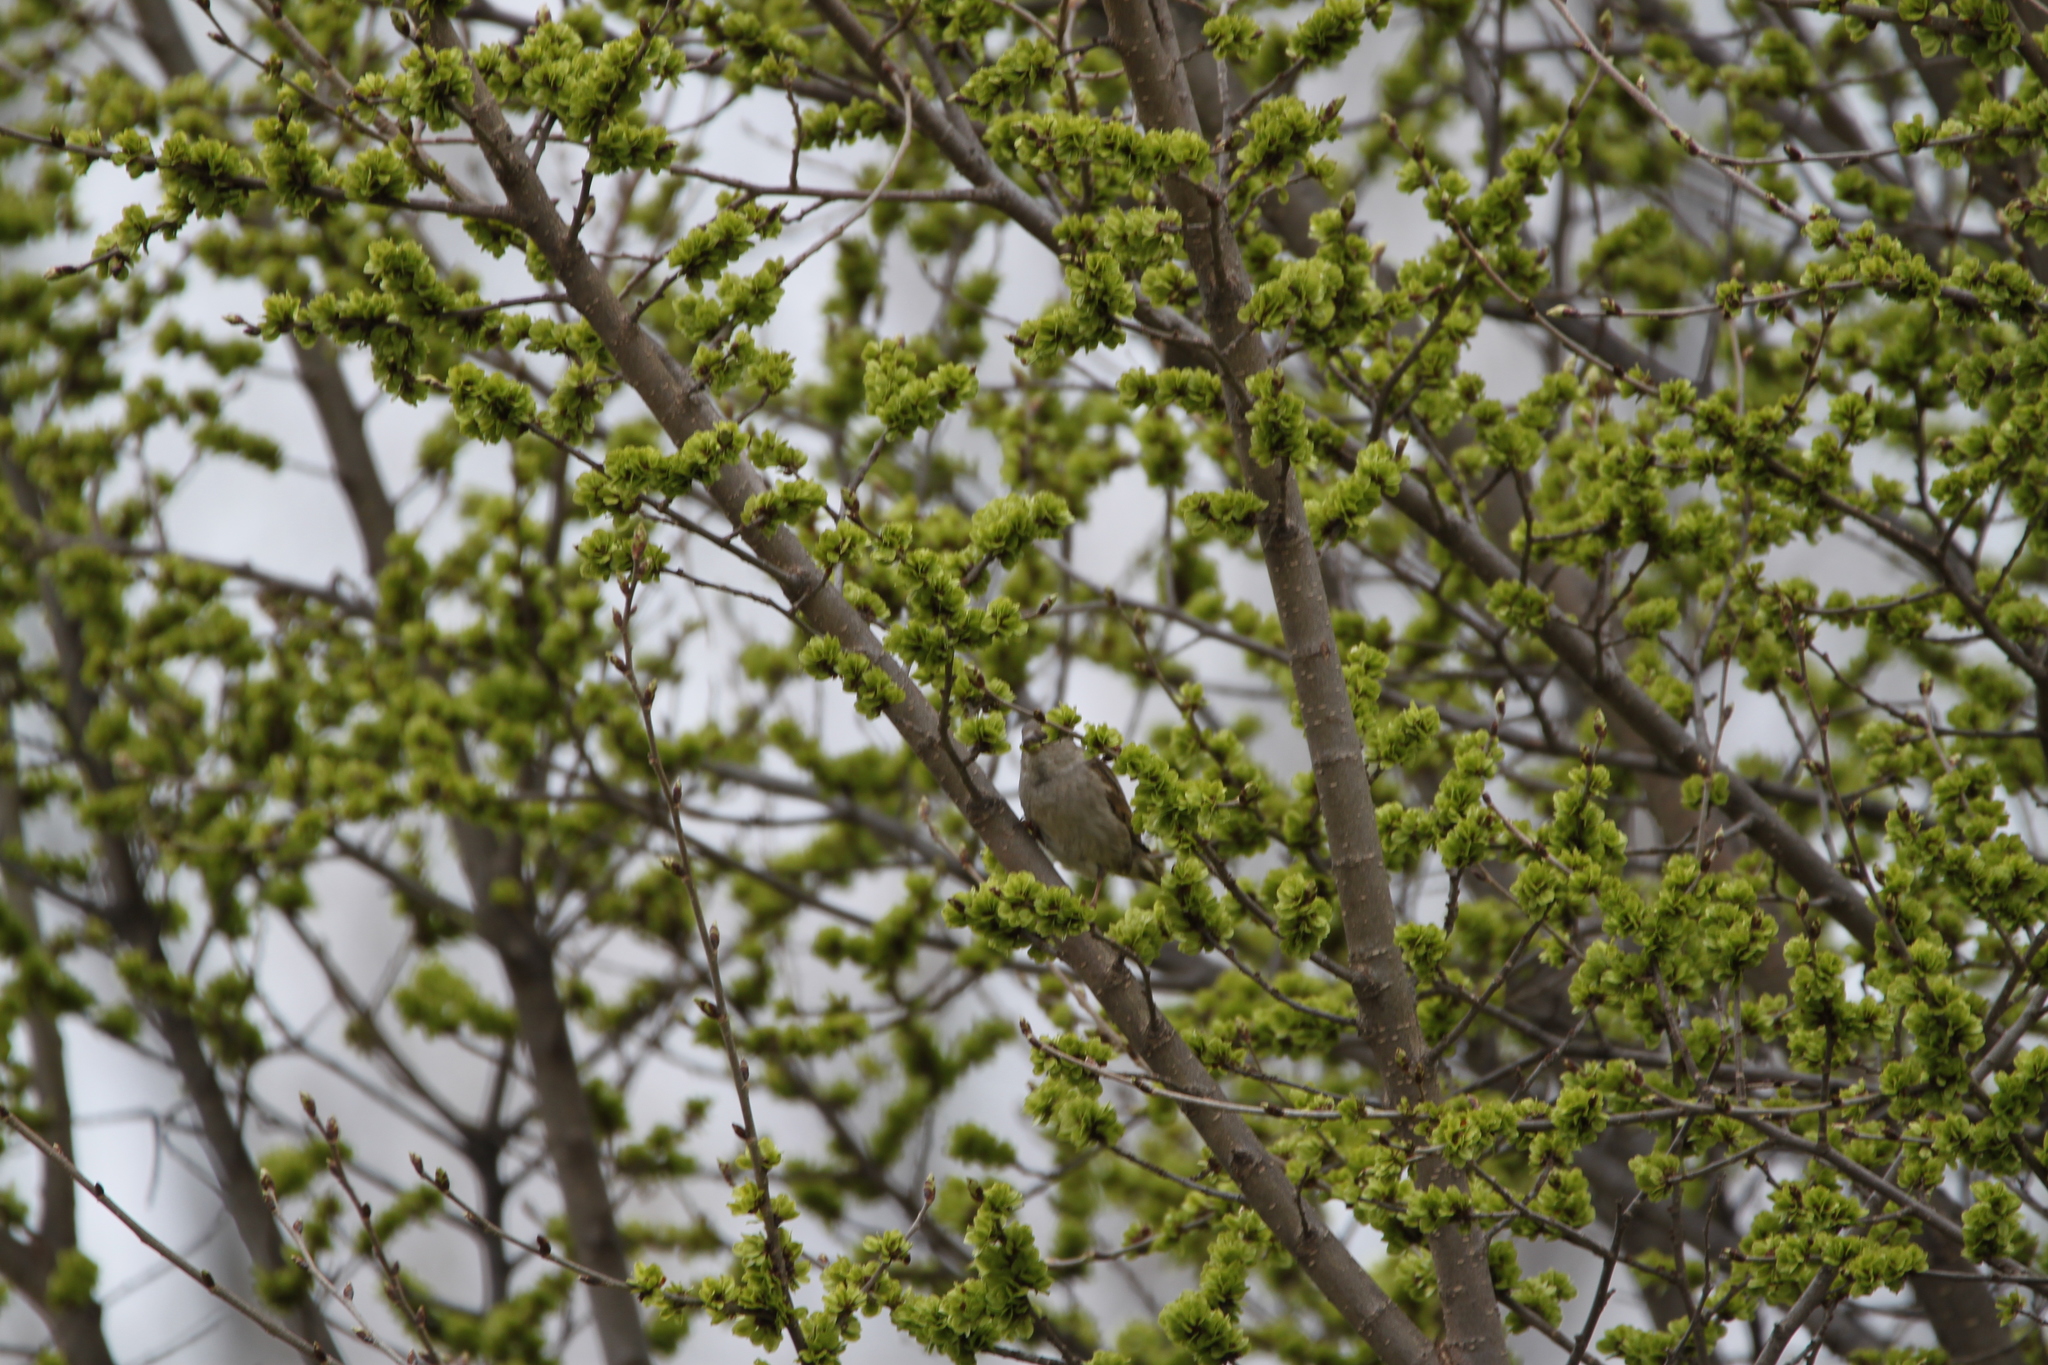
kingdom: Animalia
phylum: Chordata
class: Aves
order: Passeriformes
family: Passeridae
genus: Passer
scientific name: Passer domesticus
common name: House sparrow
